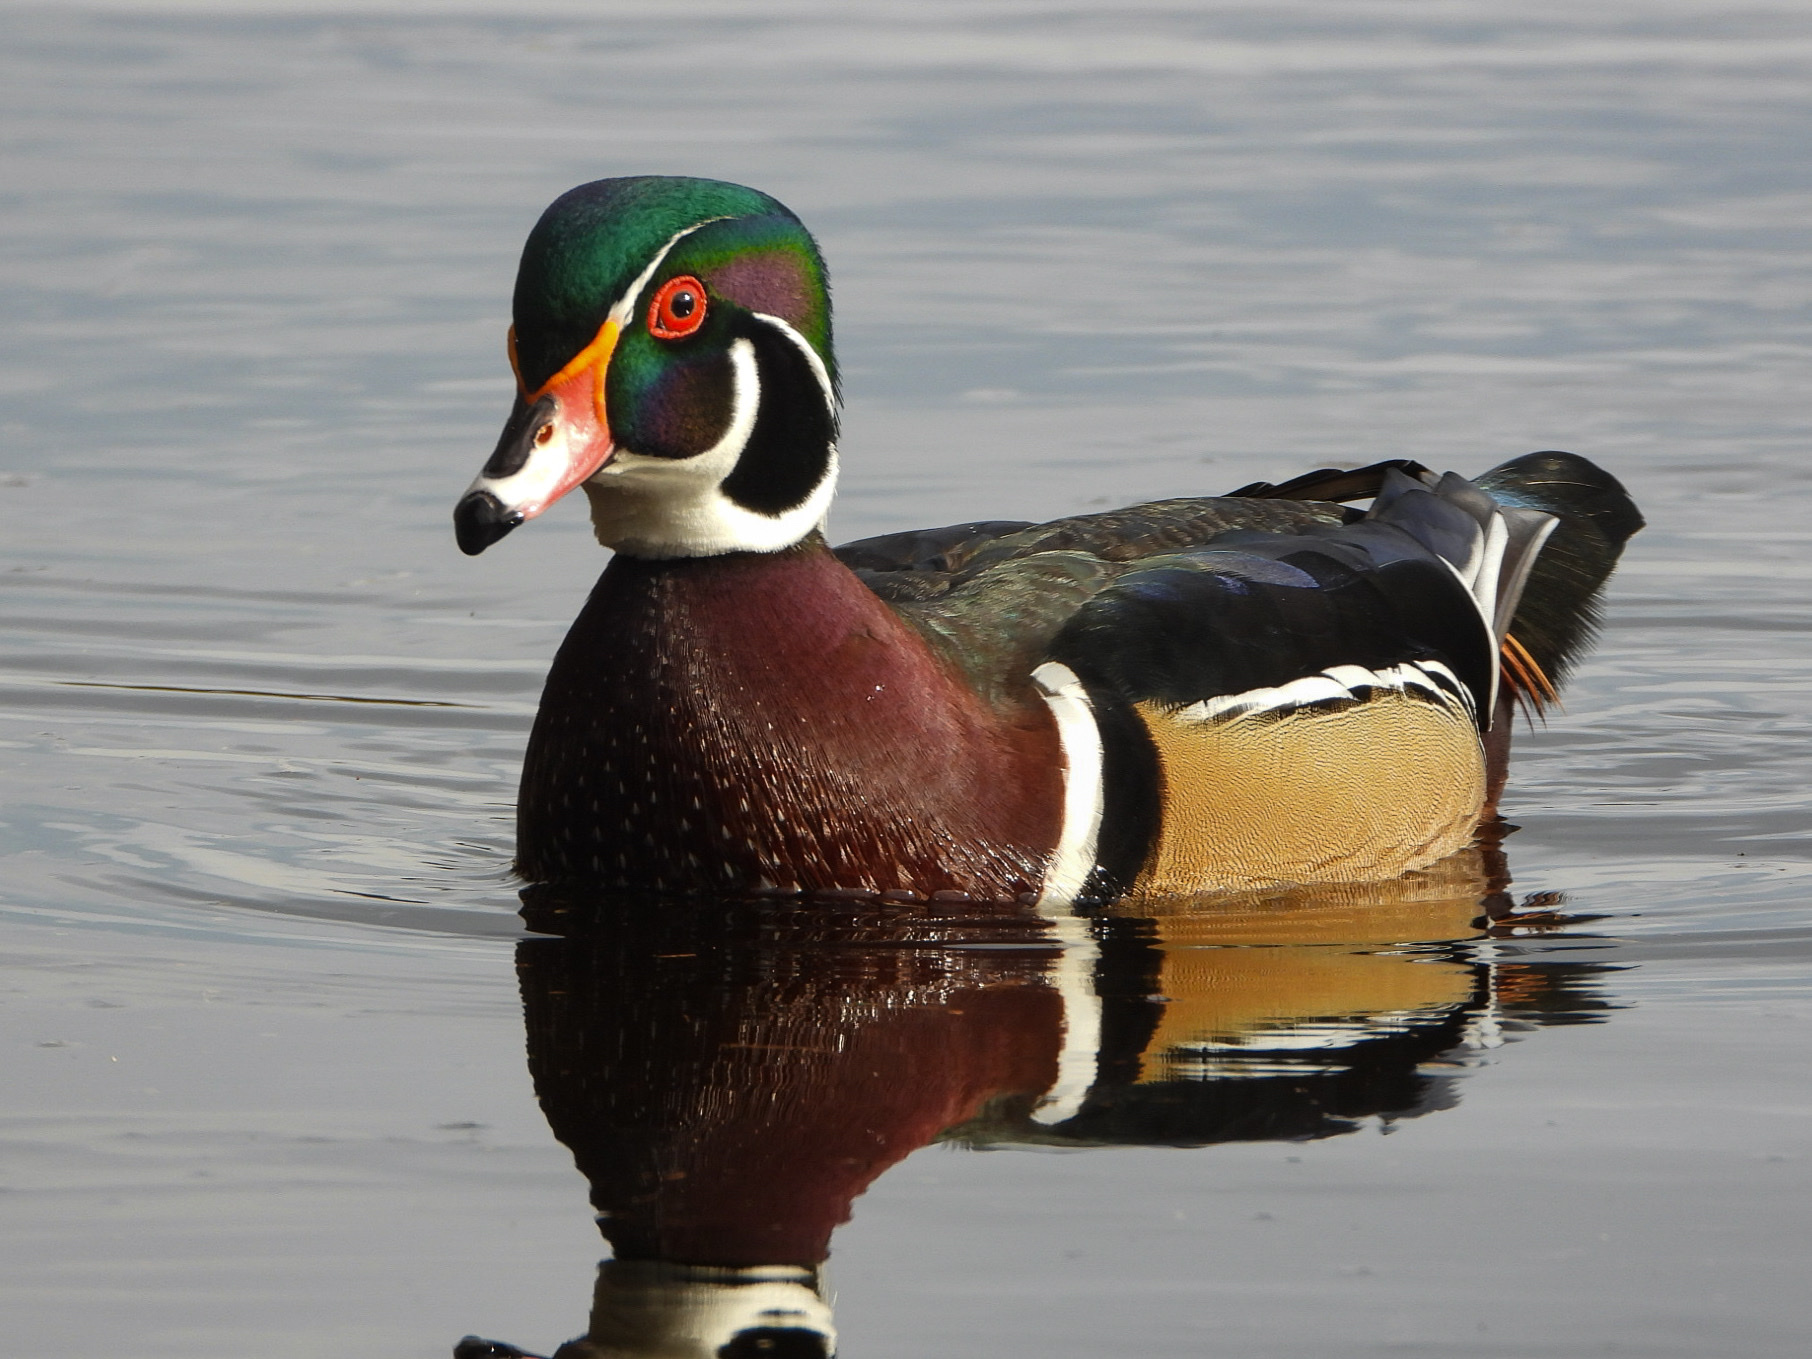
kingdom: Animalia
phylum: Chordata
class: Aves
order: Anseriformes
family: Anatidae
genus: Aix
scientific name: Aix sponsa
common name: Wood duck
